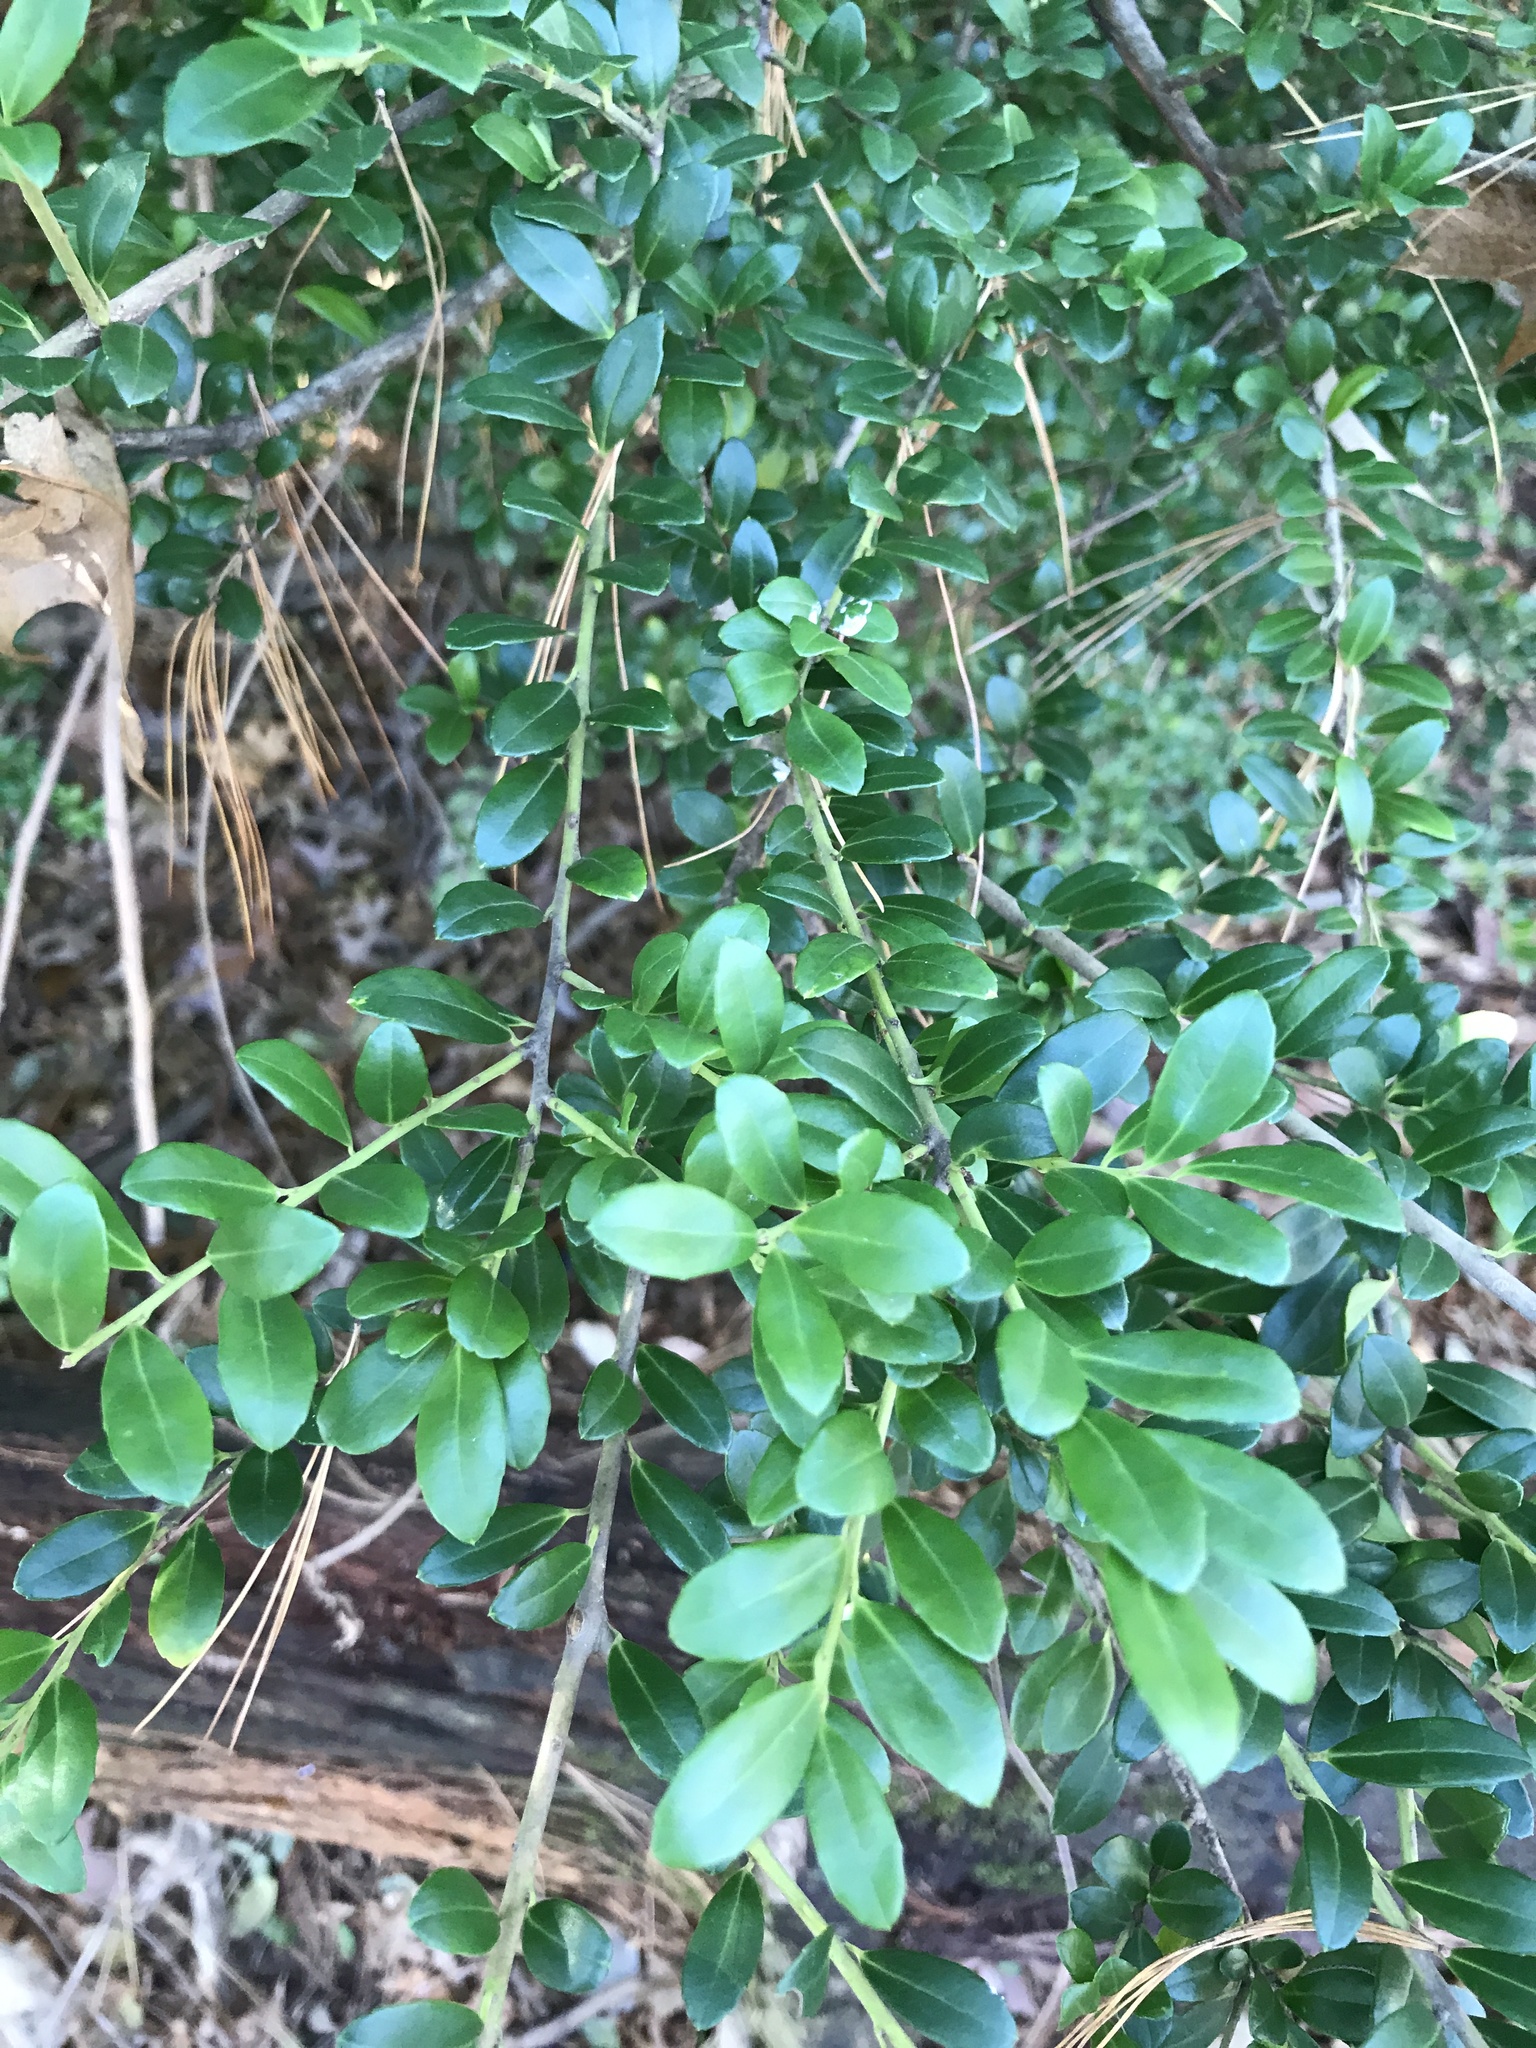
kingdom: Plantae
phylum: Tracheophyta
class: Magnoliopsida
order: Aquifoliales
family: Aquifoliaceae
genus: Ilex
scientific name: Ilex crenata
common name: Japanese holly
